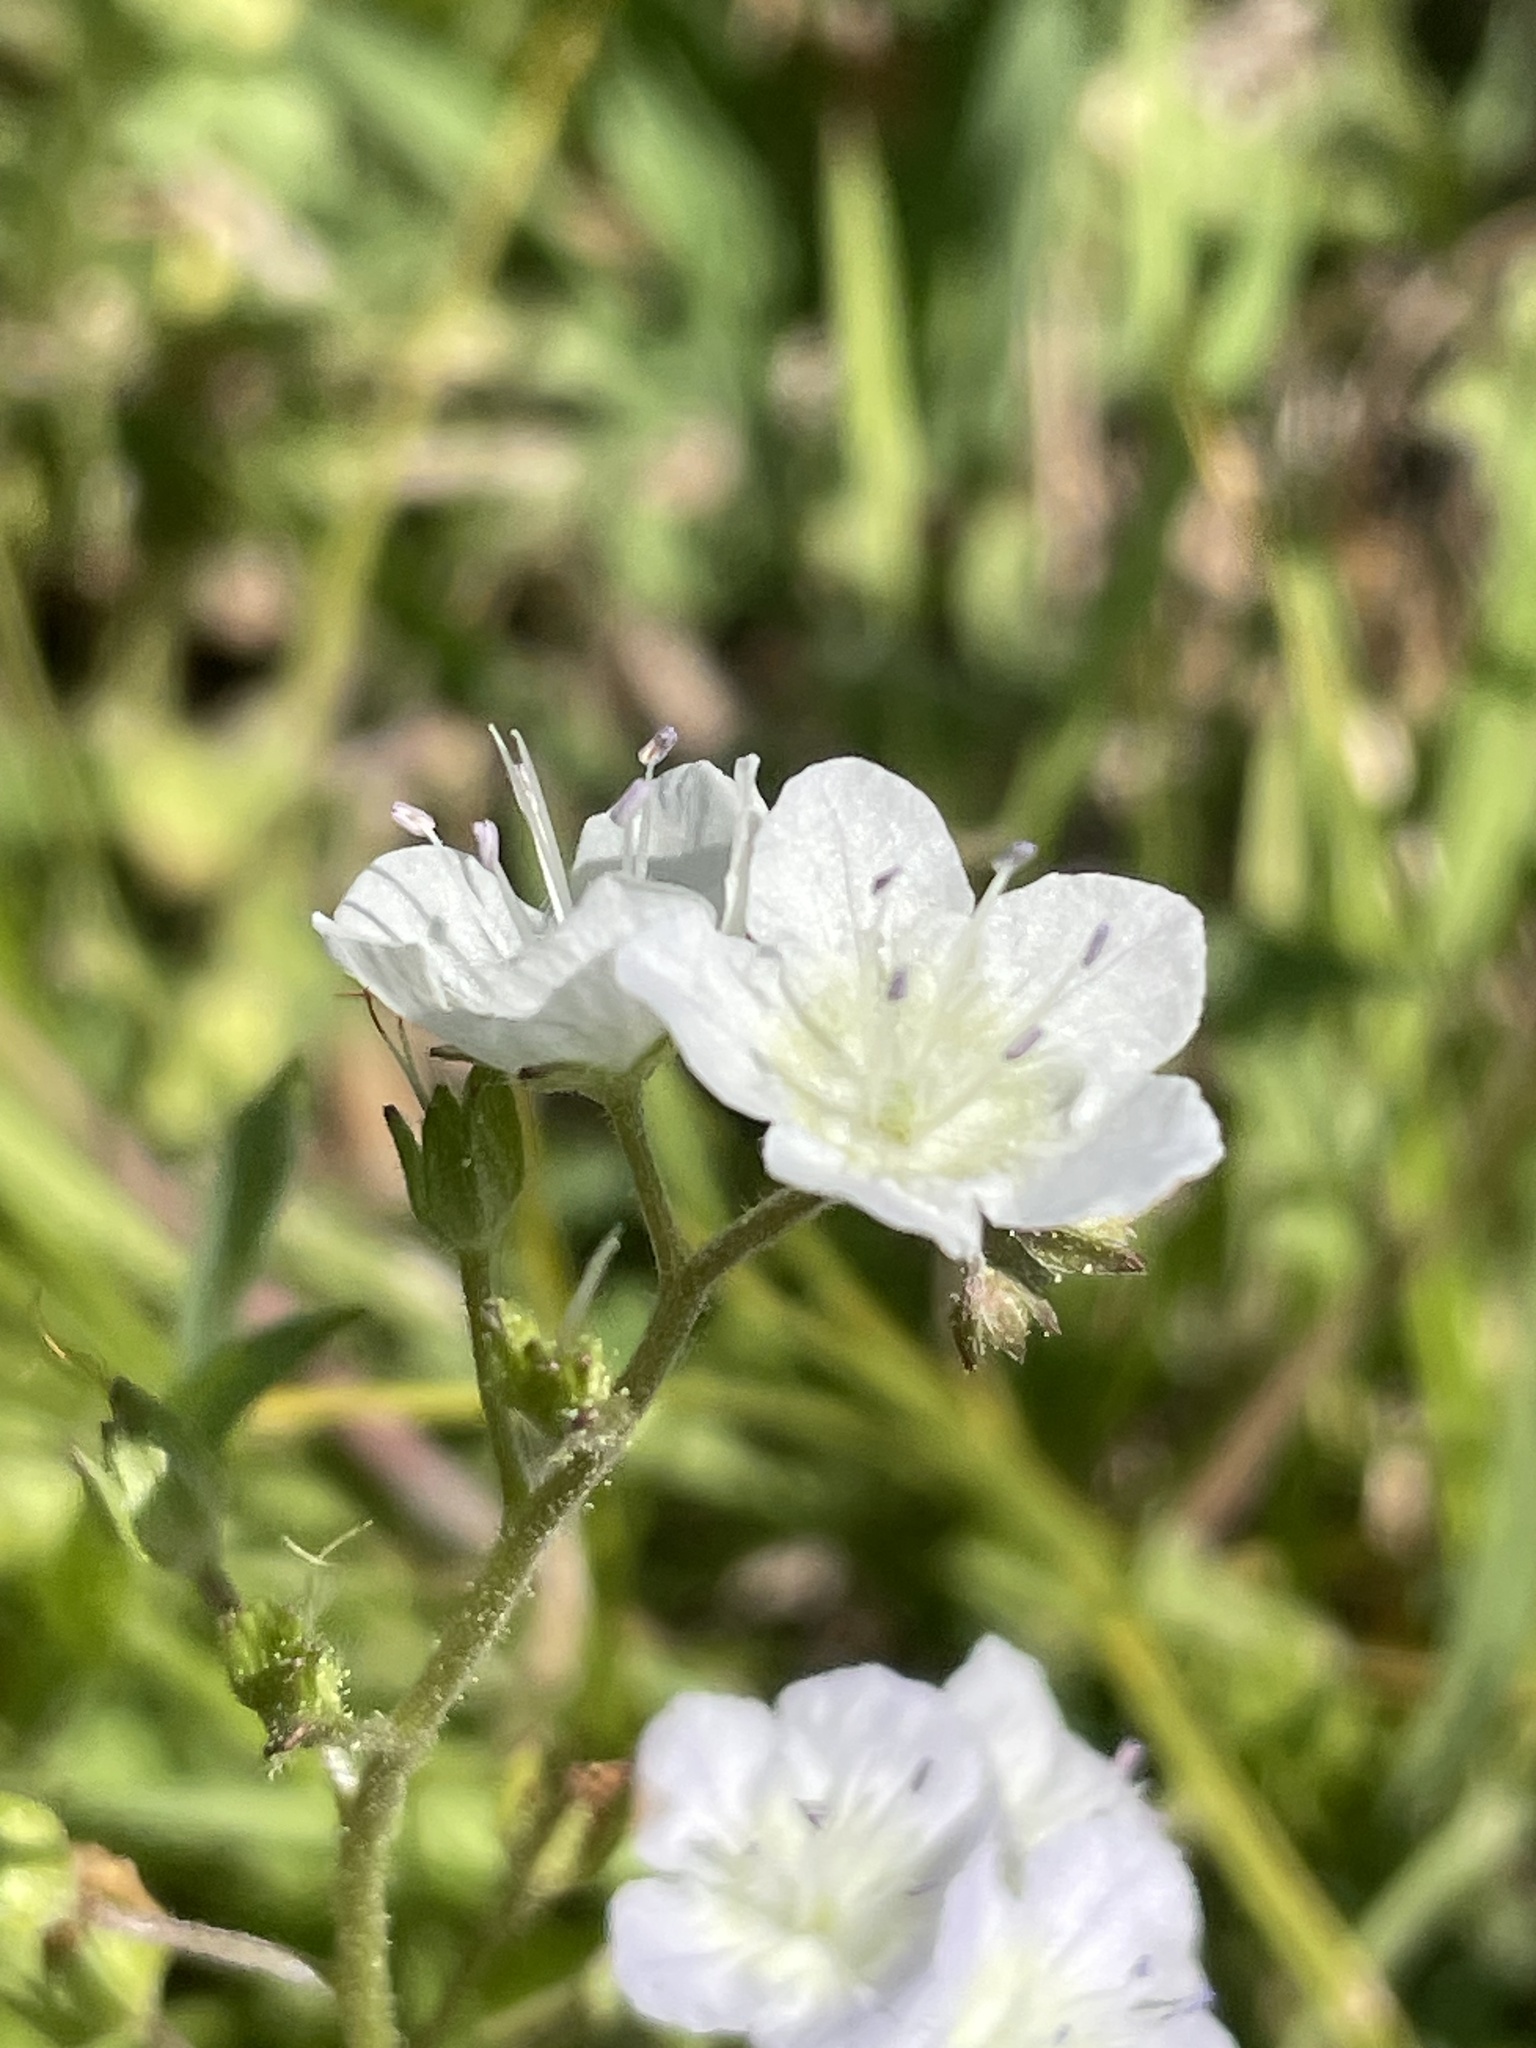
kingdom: Plantae
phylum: Tracheophyta
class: Magnoliopsida
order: Boraginales
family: Hydrophyllaceae
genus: Phacelia
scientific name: Phacelia dubia
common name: Appalachian phacelia
